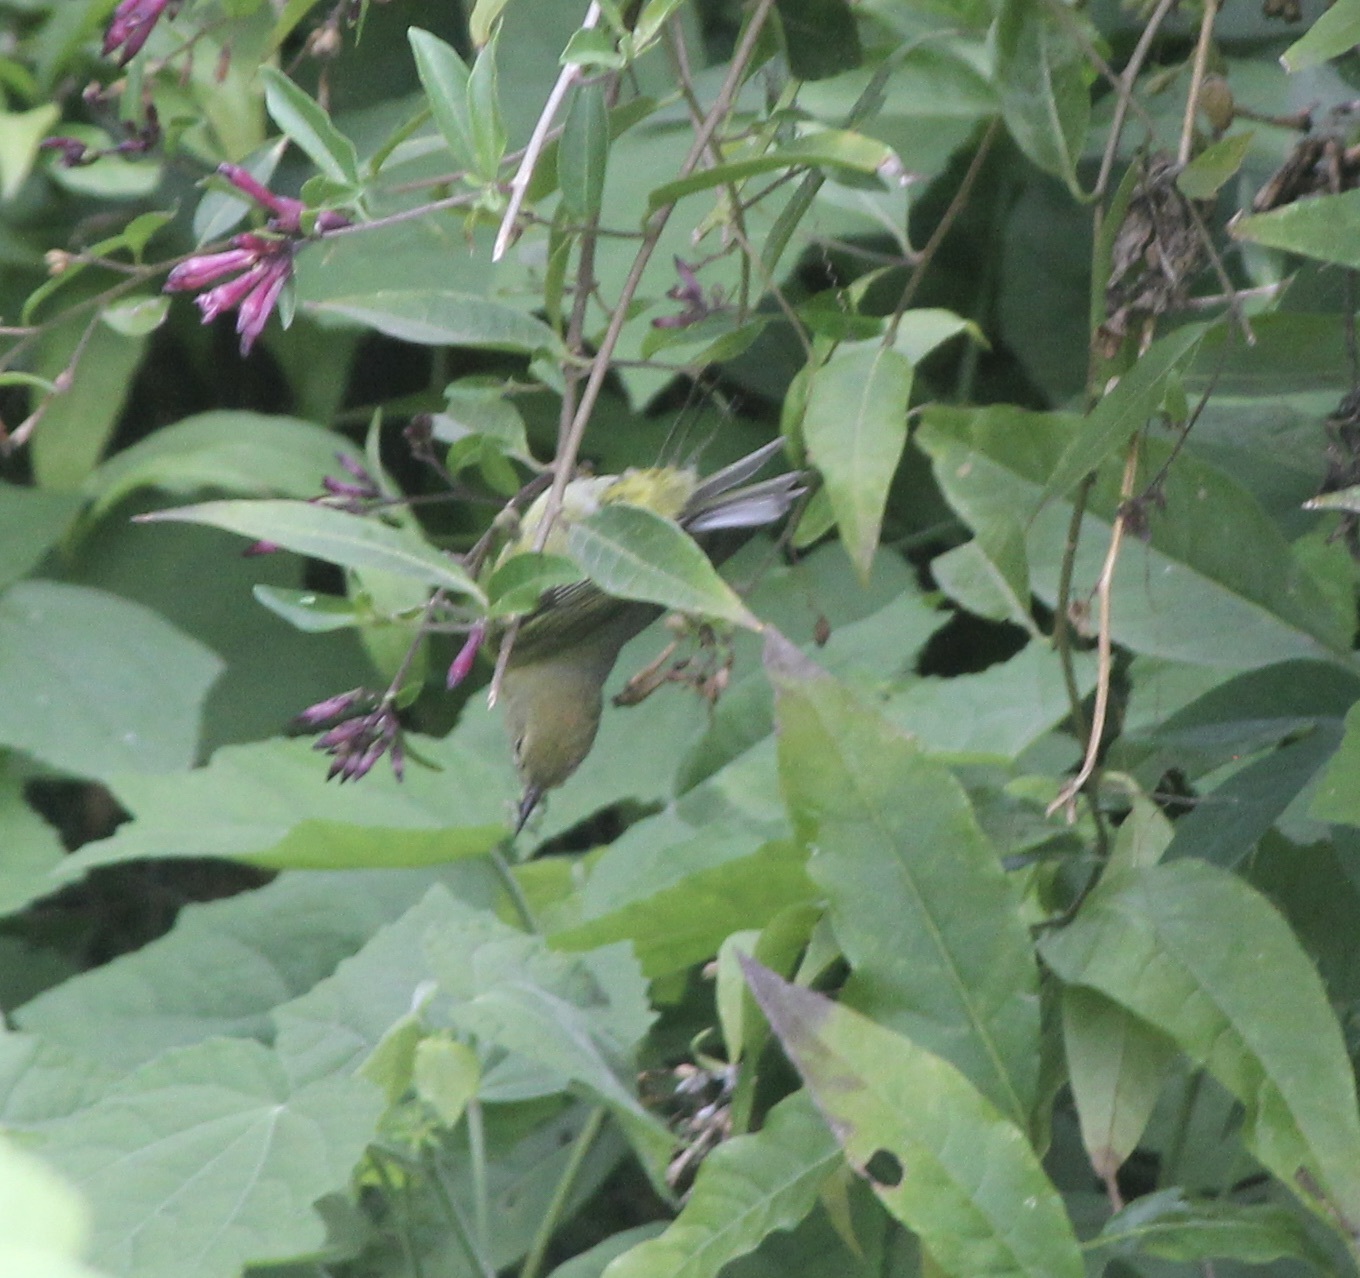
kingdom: Animalia
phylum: Chordata
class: Aves
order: Passeriformes
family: Parulidae
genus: Leiothlypis
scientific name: Leiothlypis celata
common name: Orange-crowned warbler
